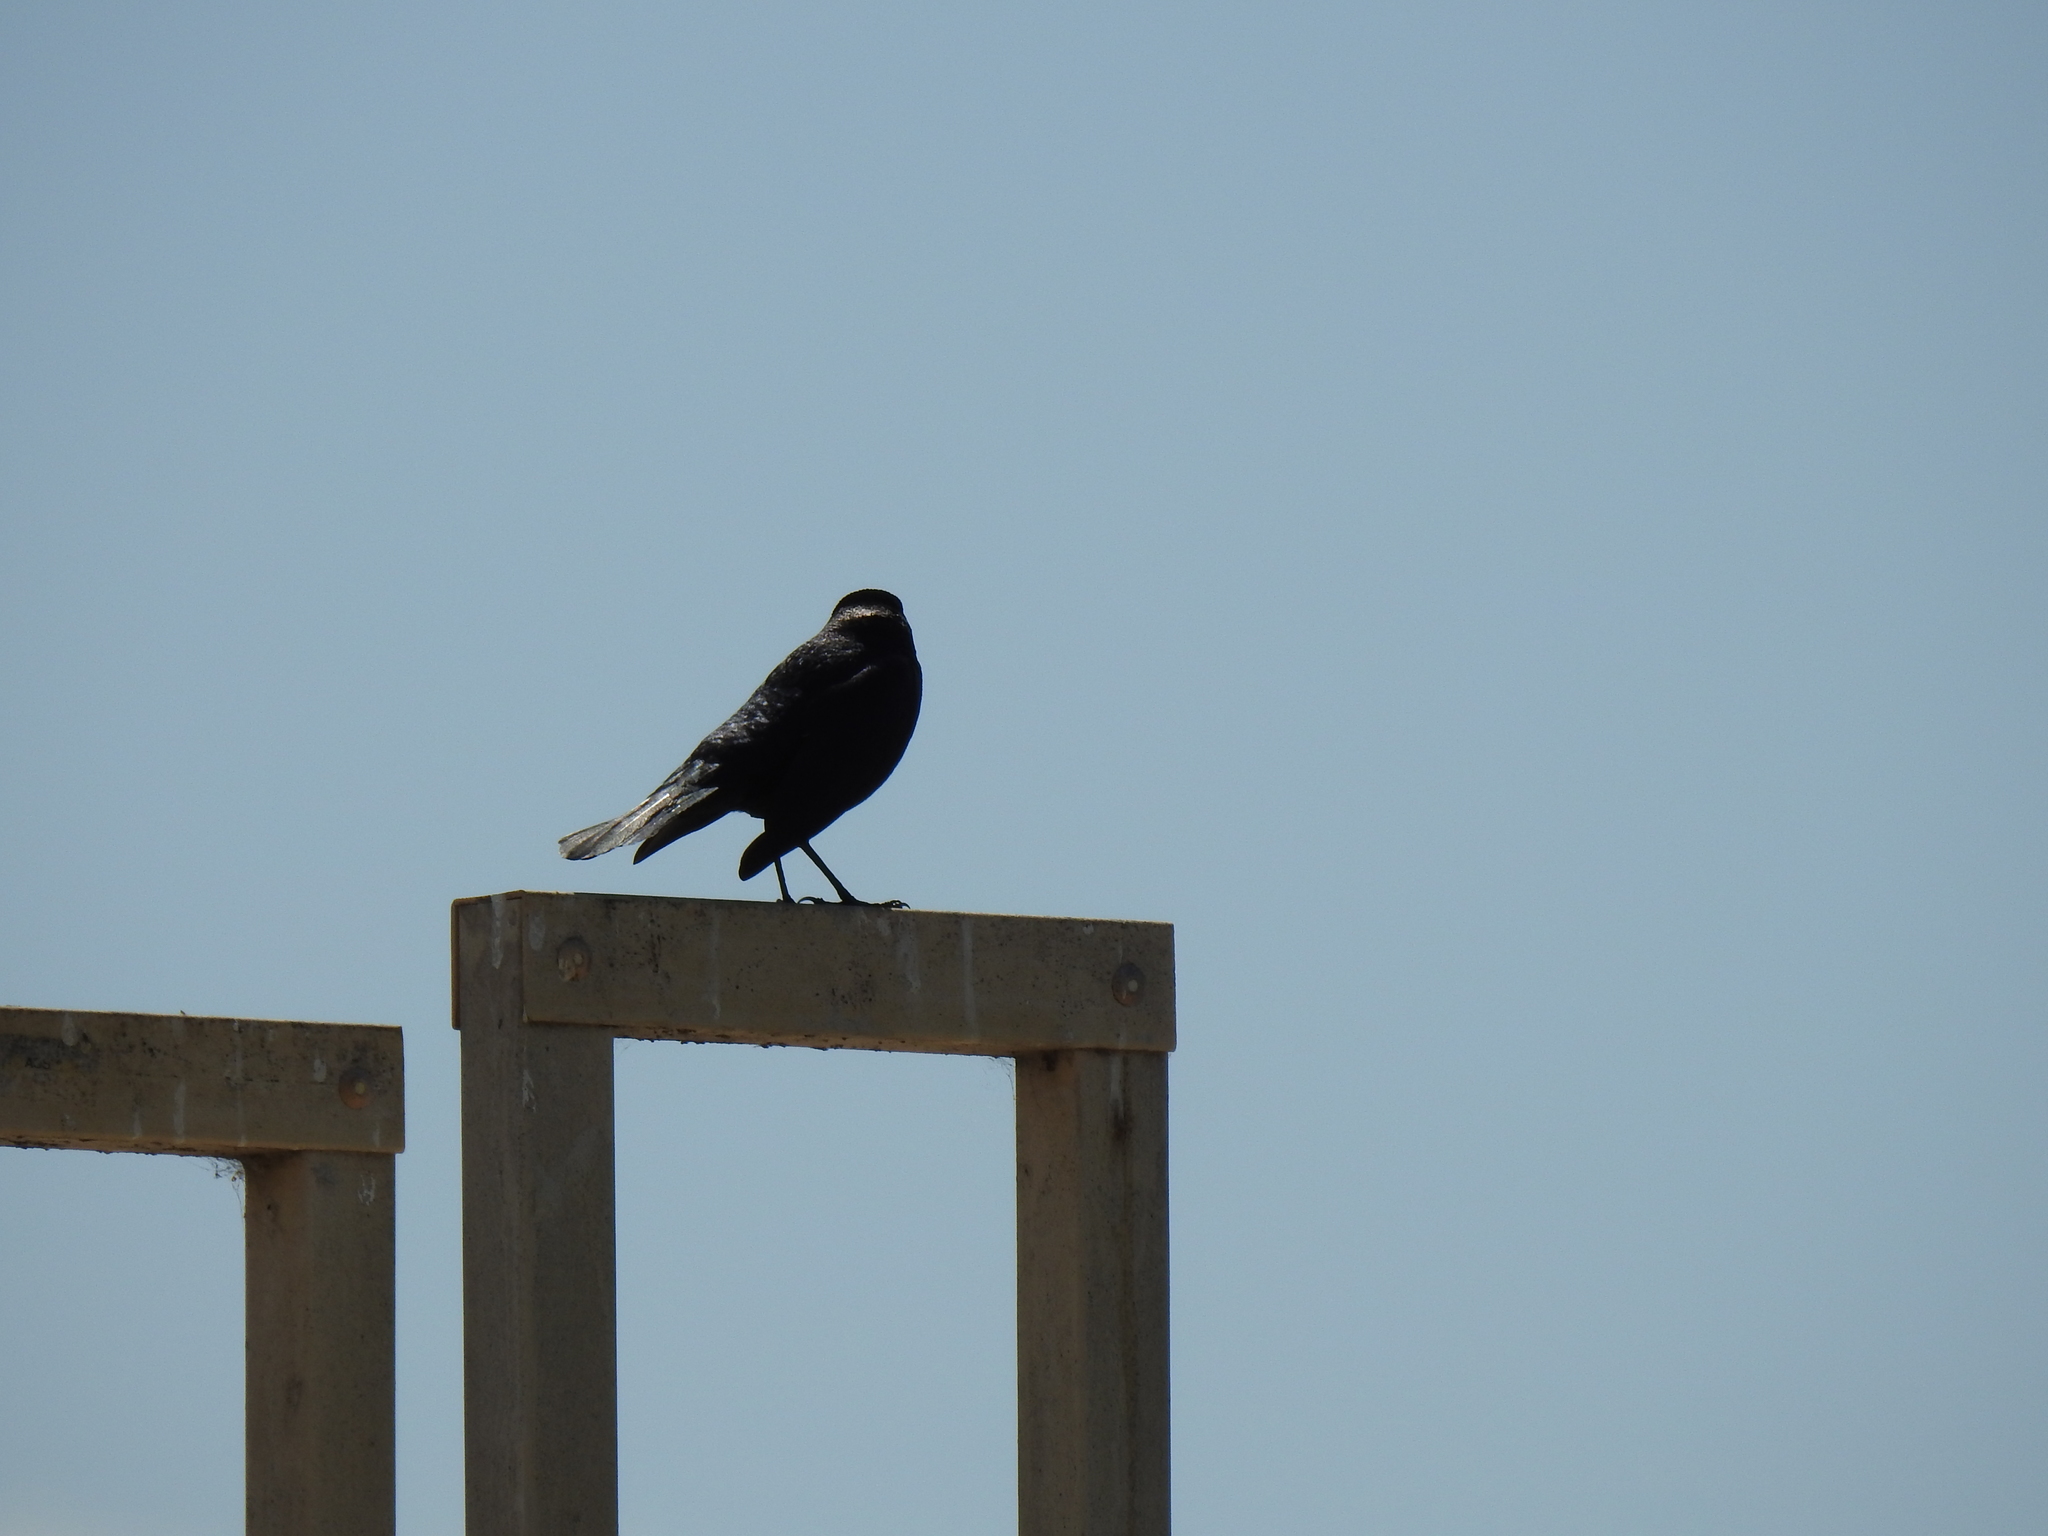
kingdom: Animalia
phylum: Chordata
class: Aves
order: Passeriformes
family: Icteridae
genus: Euphagus
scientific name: Euphagus cyanocephalus
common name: Brewer's blackbird
